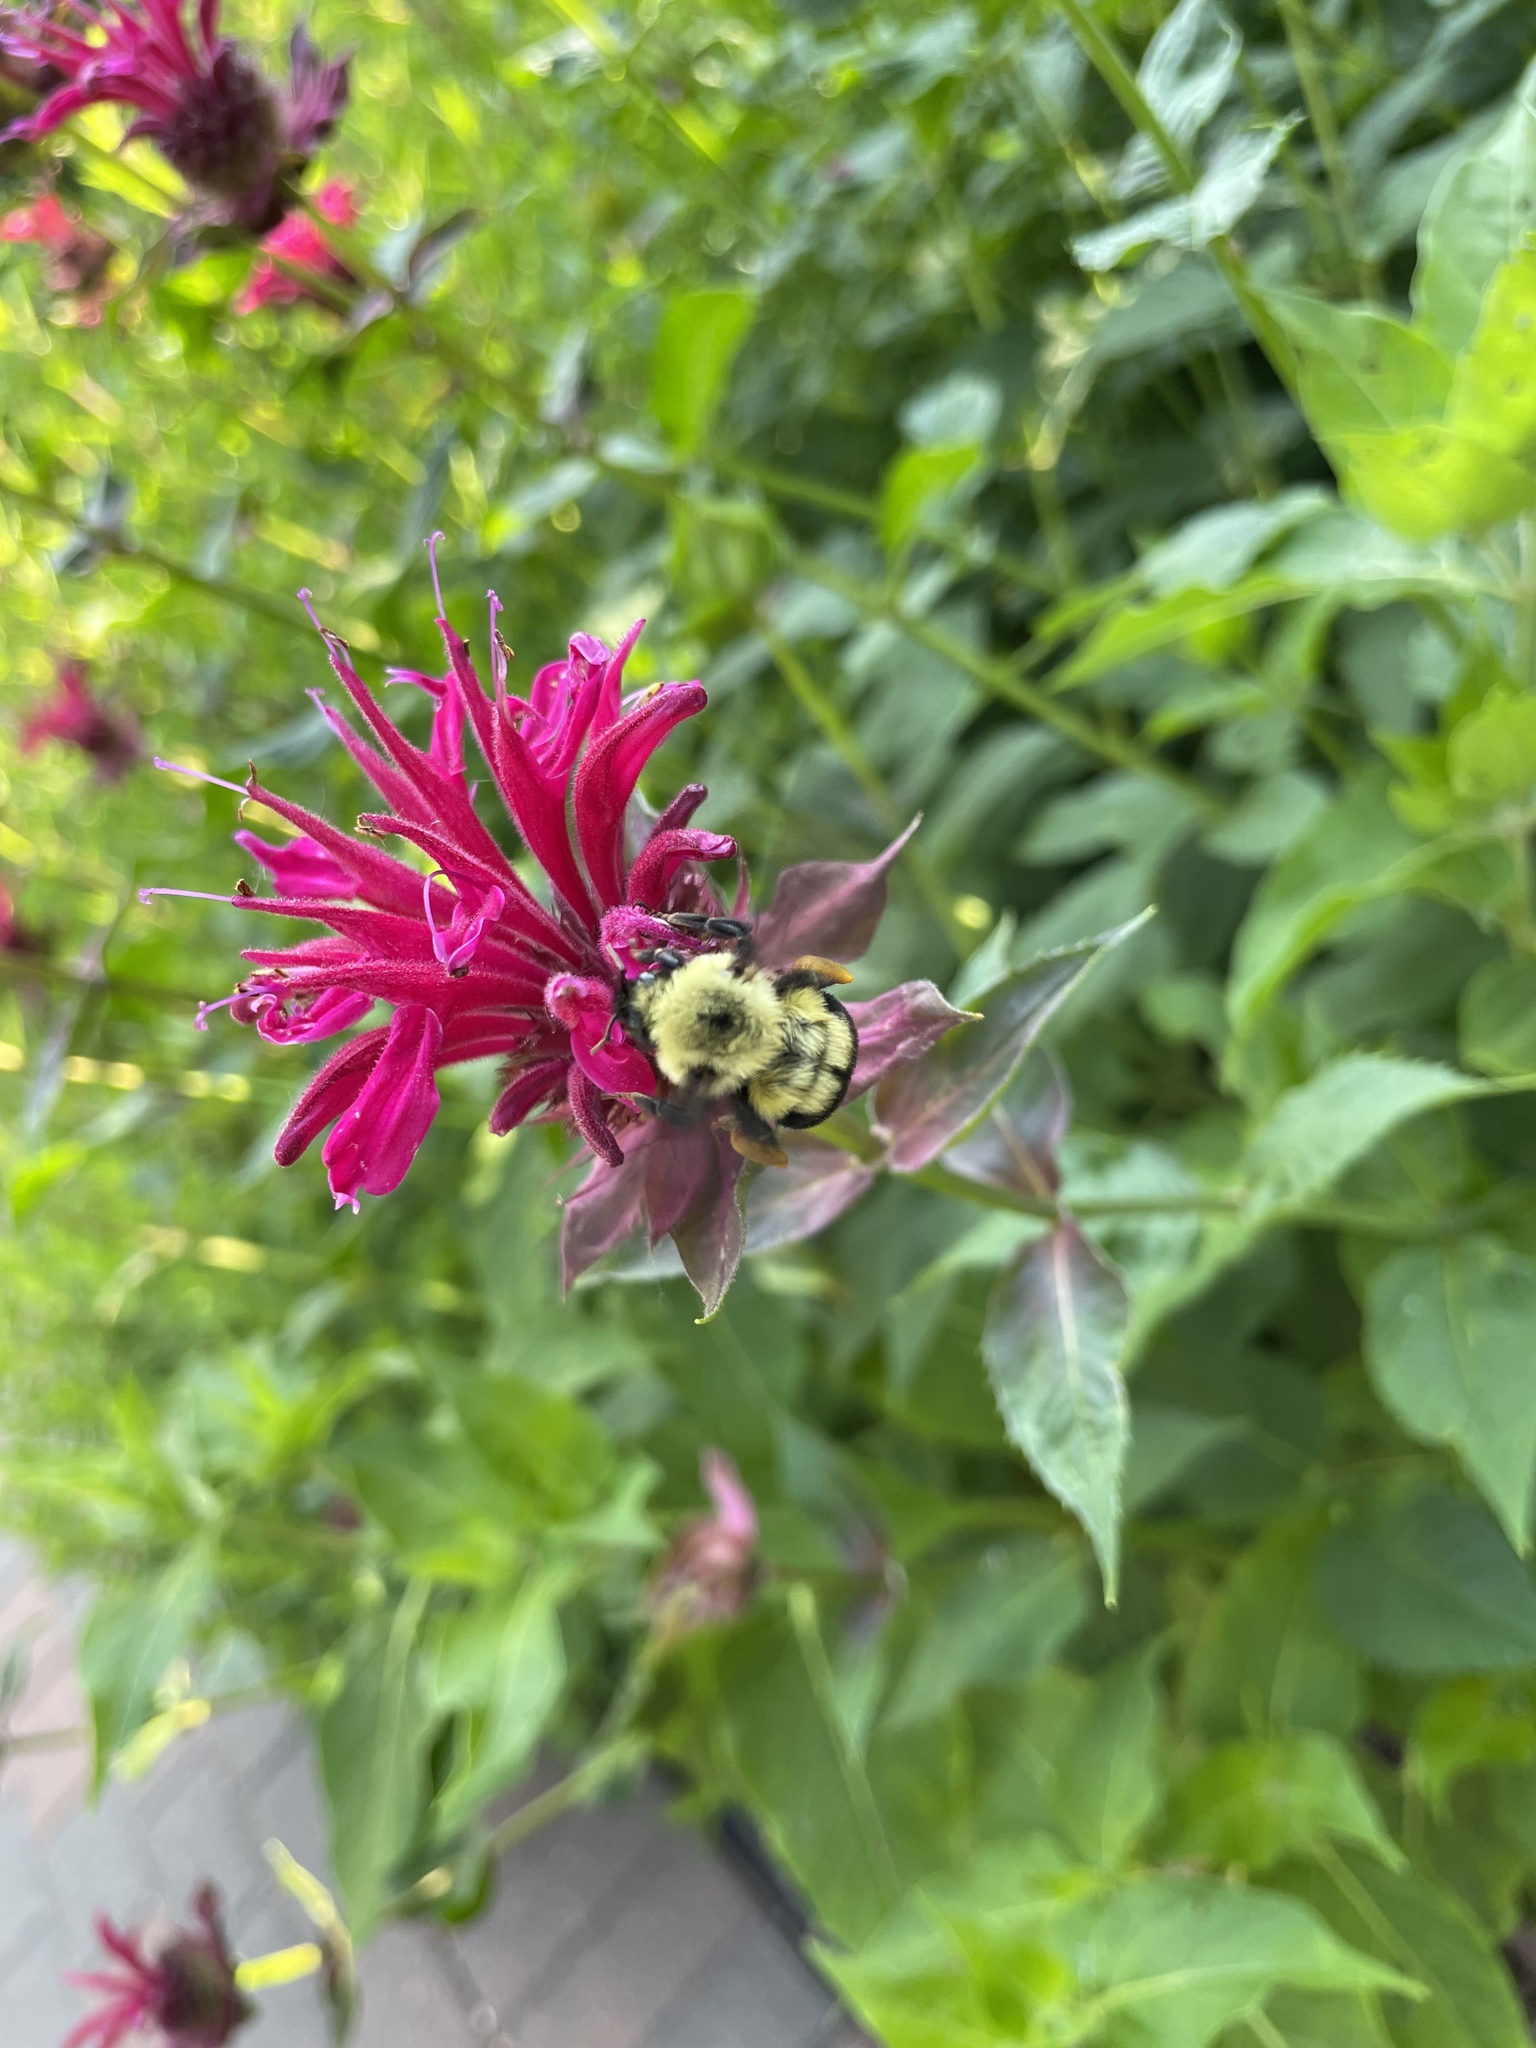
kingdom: Animalia
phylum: Arthropoda
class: Insecta
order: Hymenoptera
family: Apidae
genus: Bombus
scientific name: Bombus bimaculatus
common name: Two-spotted bumble bee
